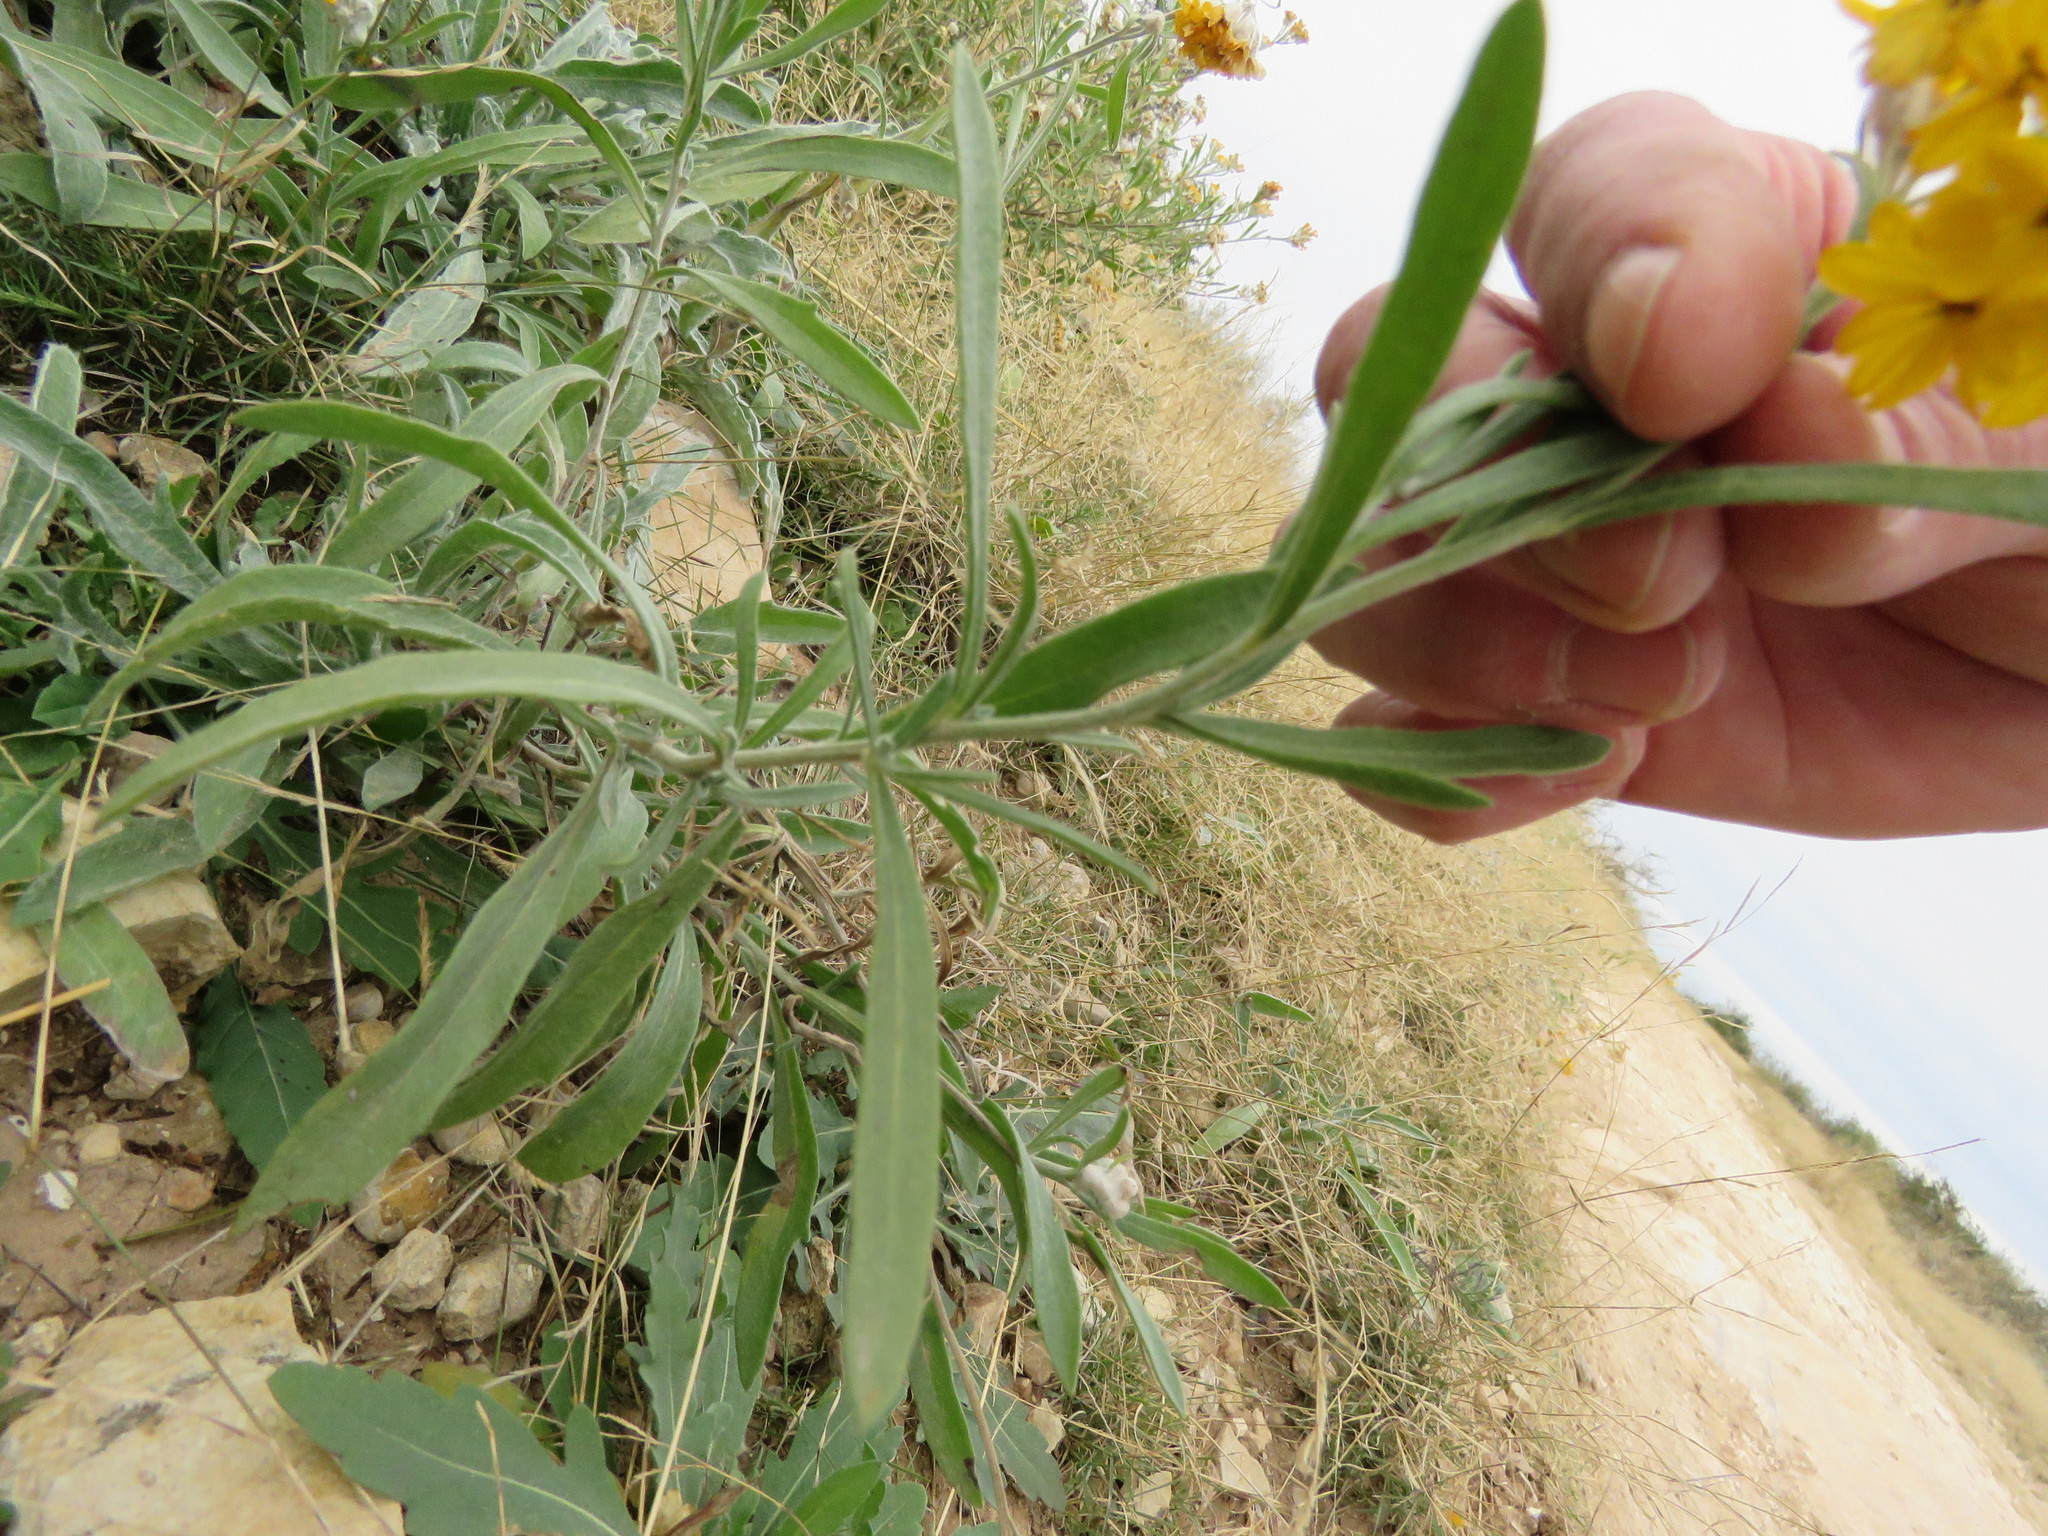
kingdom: Plantae
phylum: Tracheophyta
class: Magnoliopsida
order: Asterales
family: Asteraceae
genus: Psilostrophe
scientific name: Psilostrophe gnaphalioides
